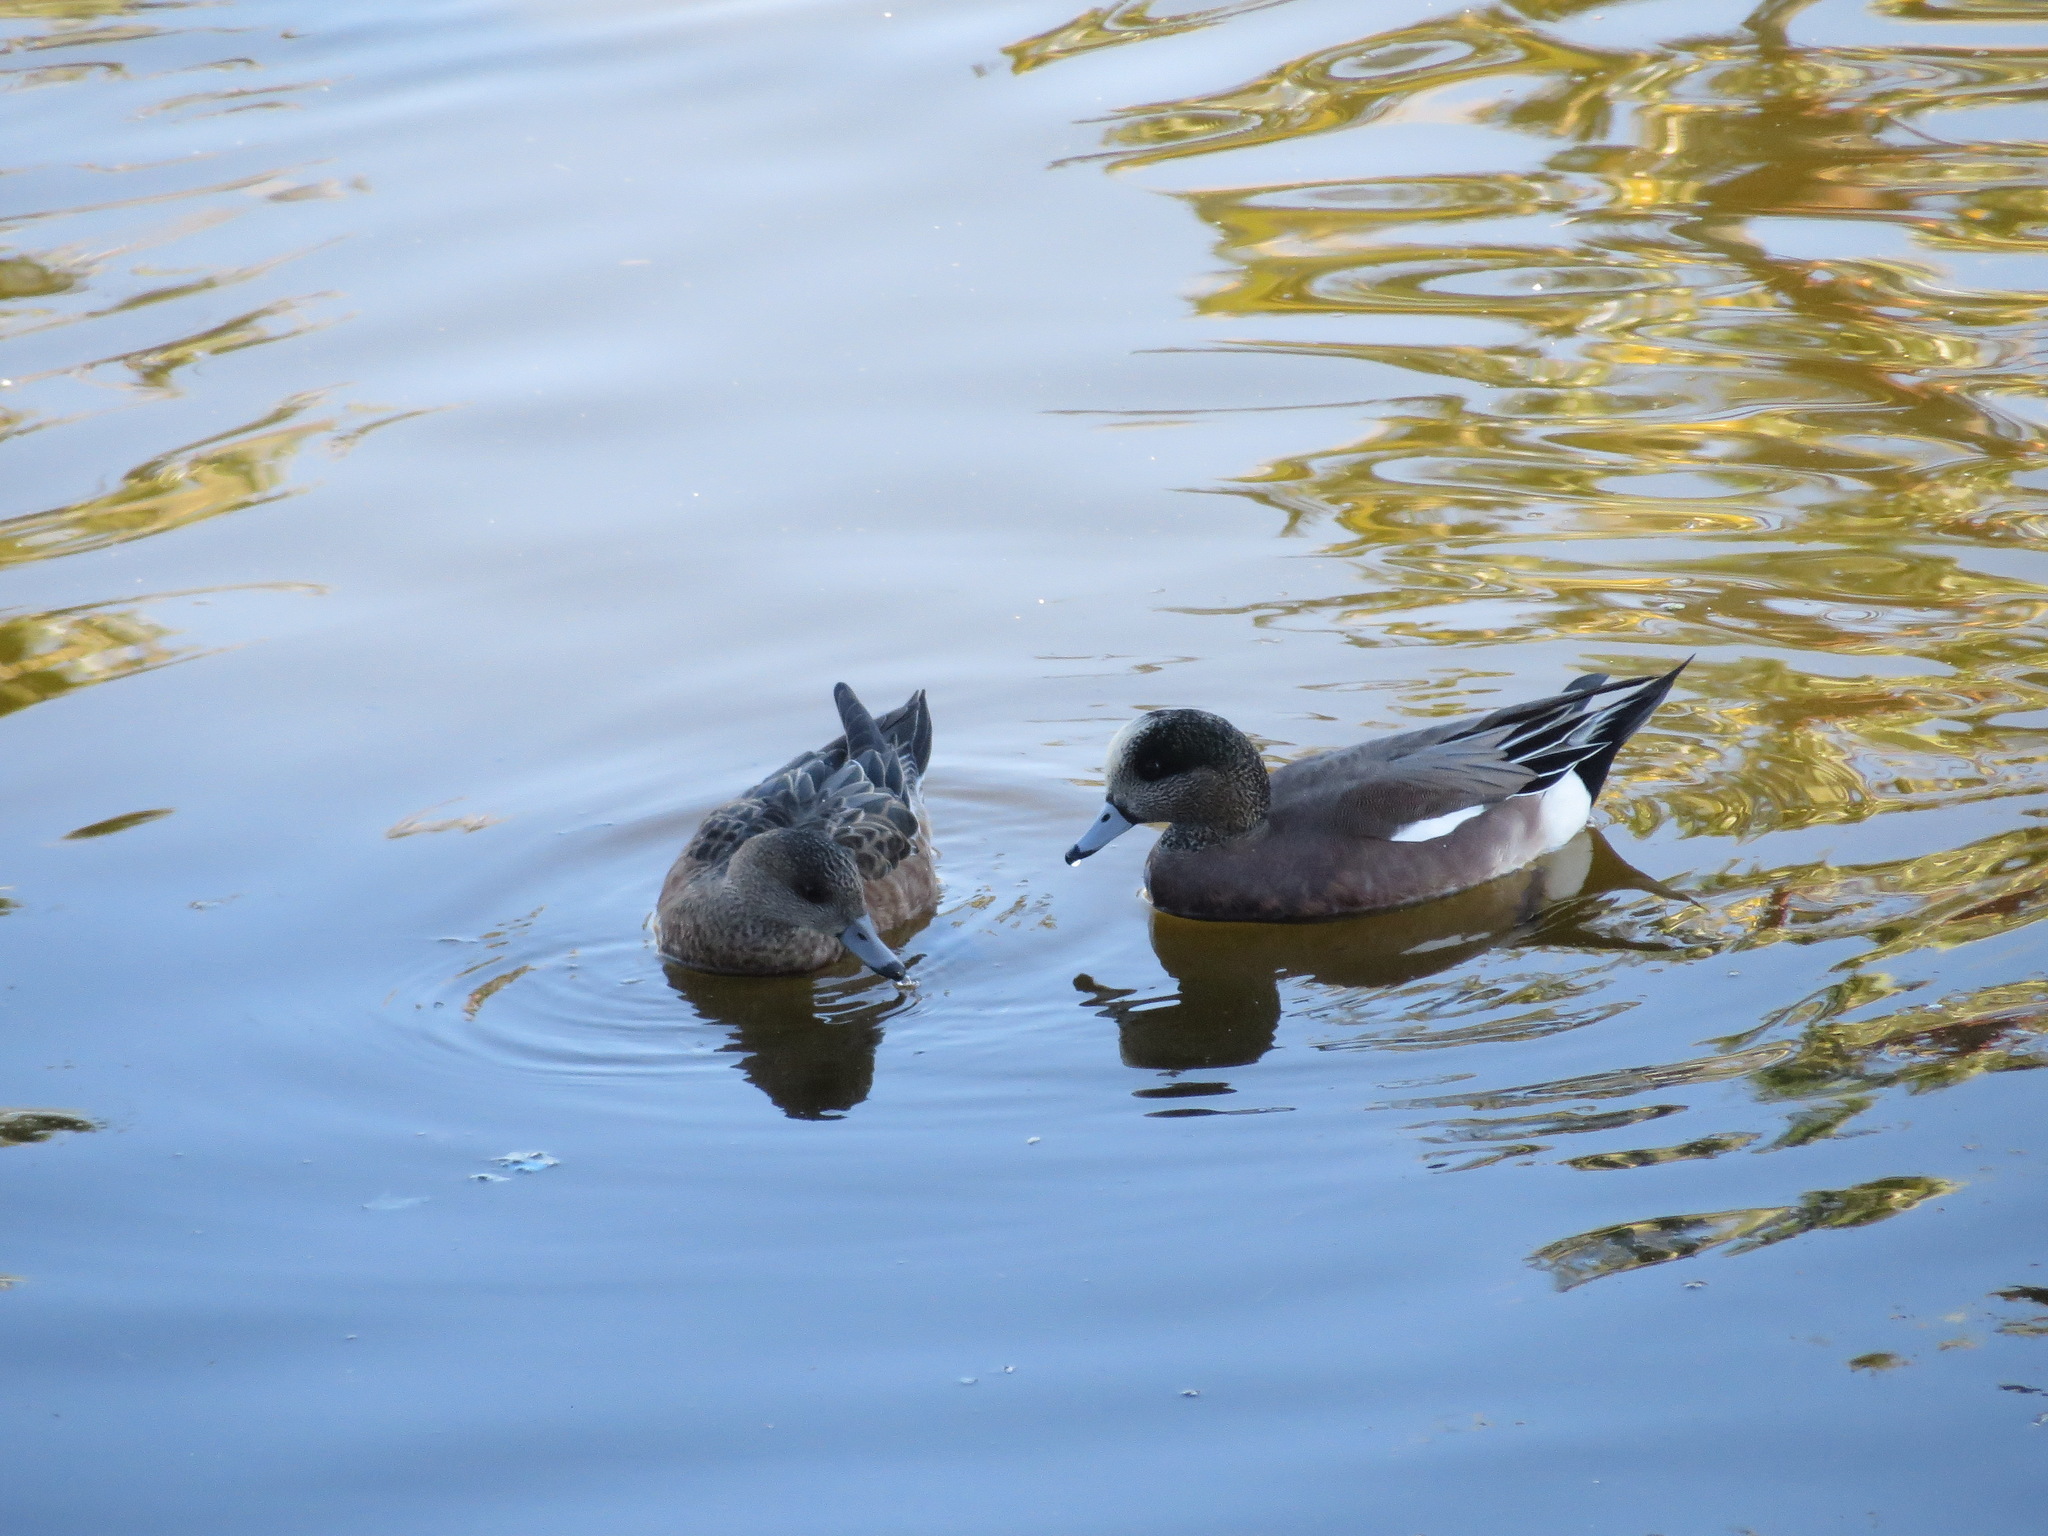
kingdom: Animalia
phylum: Chordata
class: Aves
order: Anseriformes
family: Anatidae
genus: Mareca
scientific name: Mareca americana
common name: American wigeon
